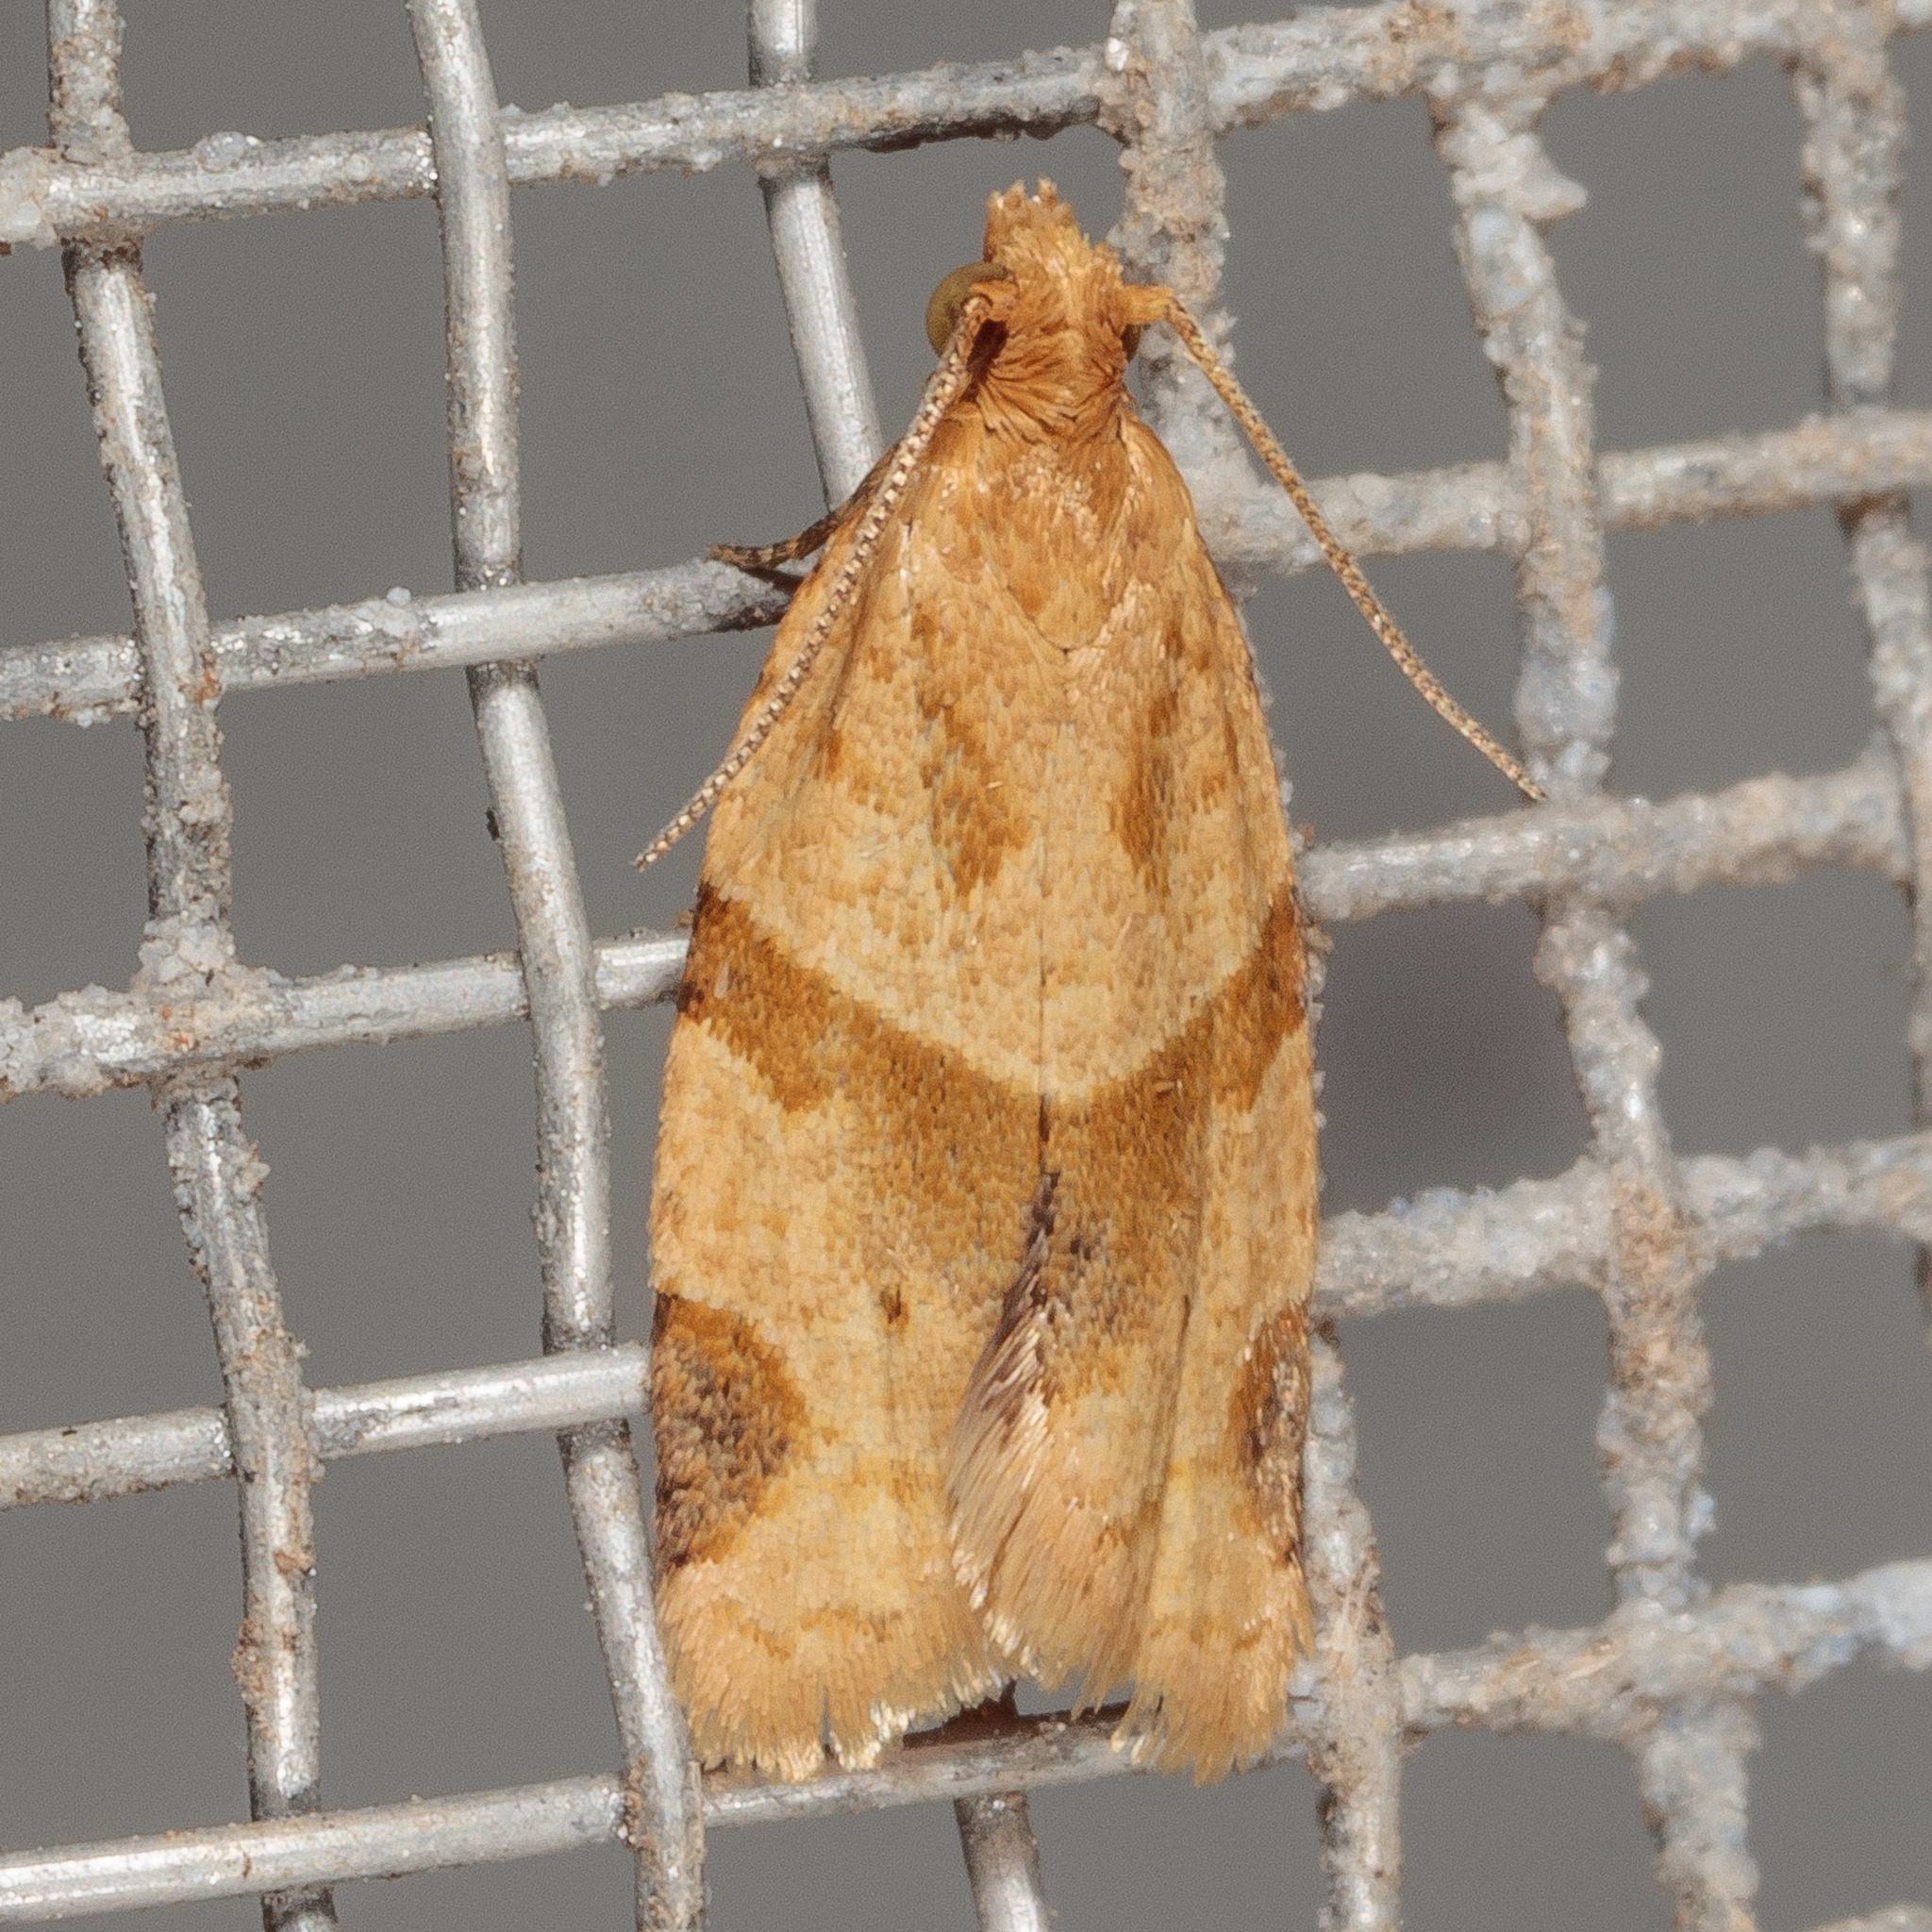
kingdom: Animalia
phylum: Arthropoda
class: Insecta
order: Lepidoptera
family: Tortricidae
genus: Clepsis
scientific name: Clepsis peritana
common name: Garden tortrix
